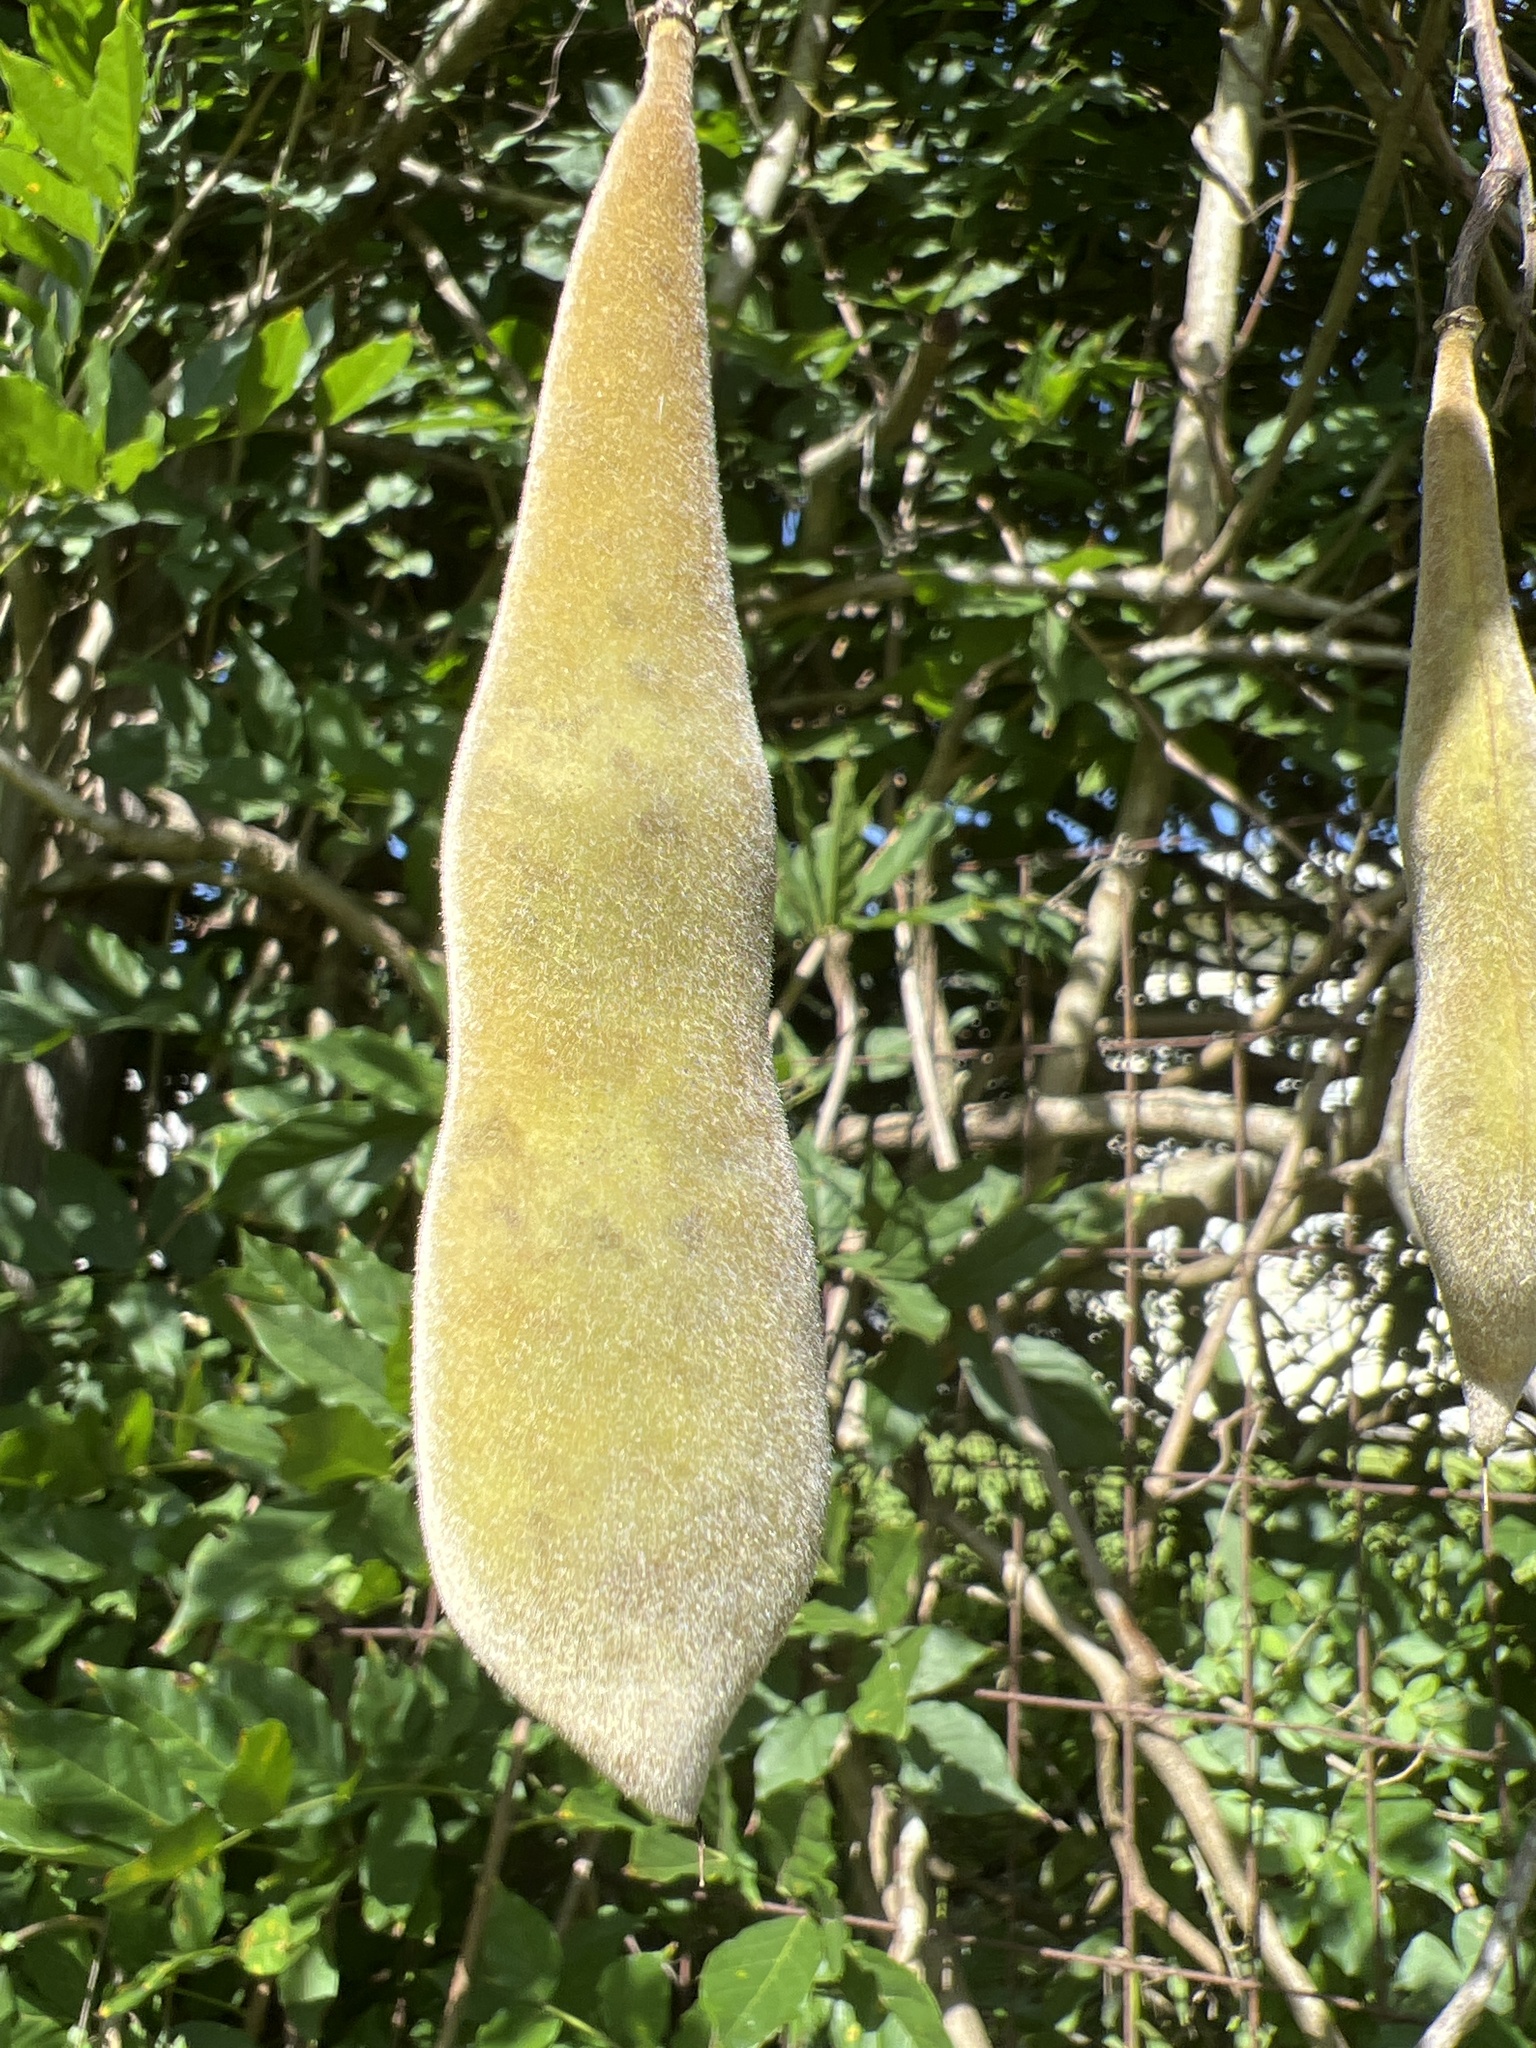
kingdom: Plantae
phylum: Tracheophyta
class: Magnoliopsida
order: Fabales
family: Fabaceae
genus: Wisteria
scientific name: Wisteria sinensis
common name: Chinese wisteria
